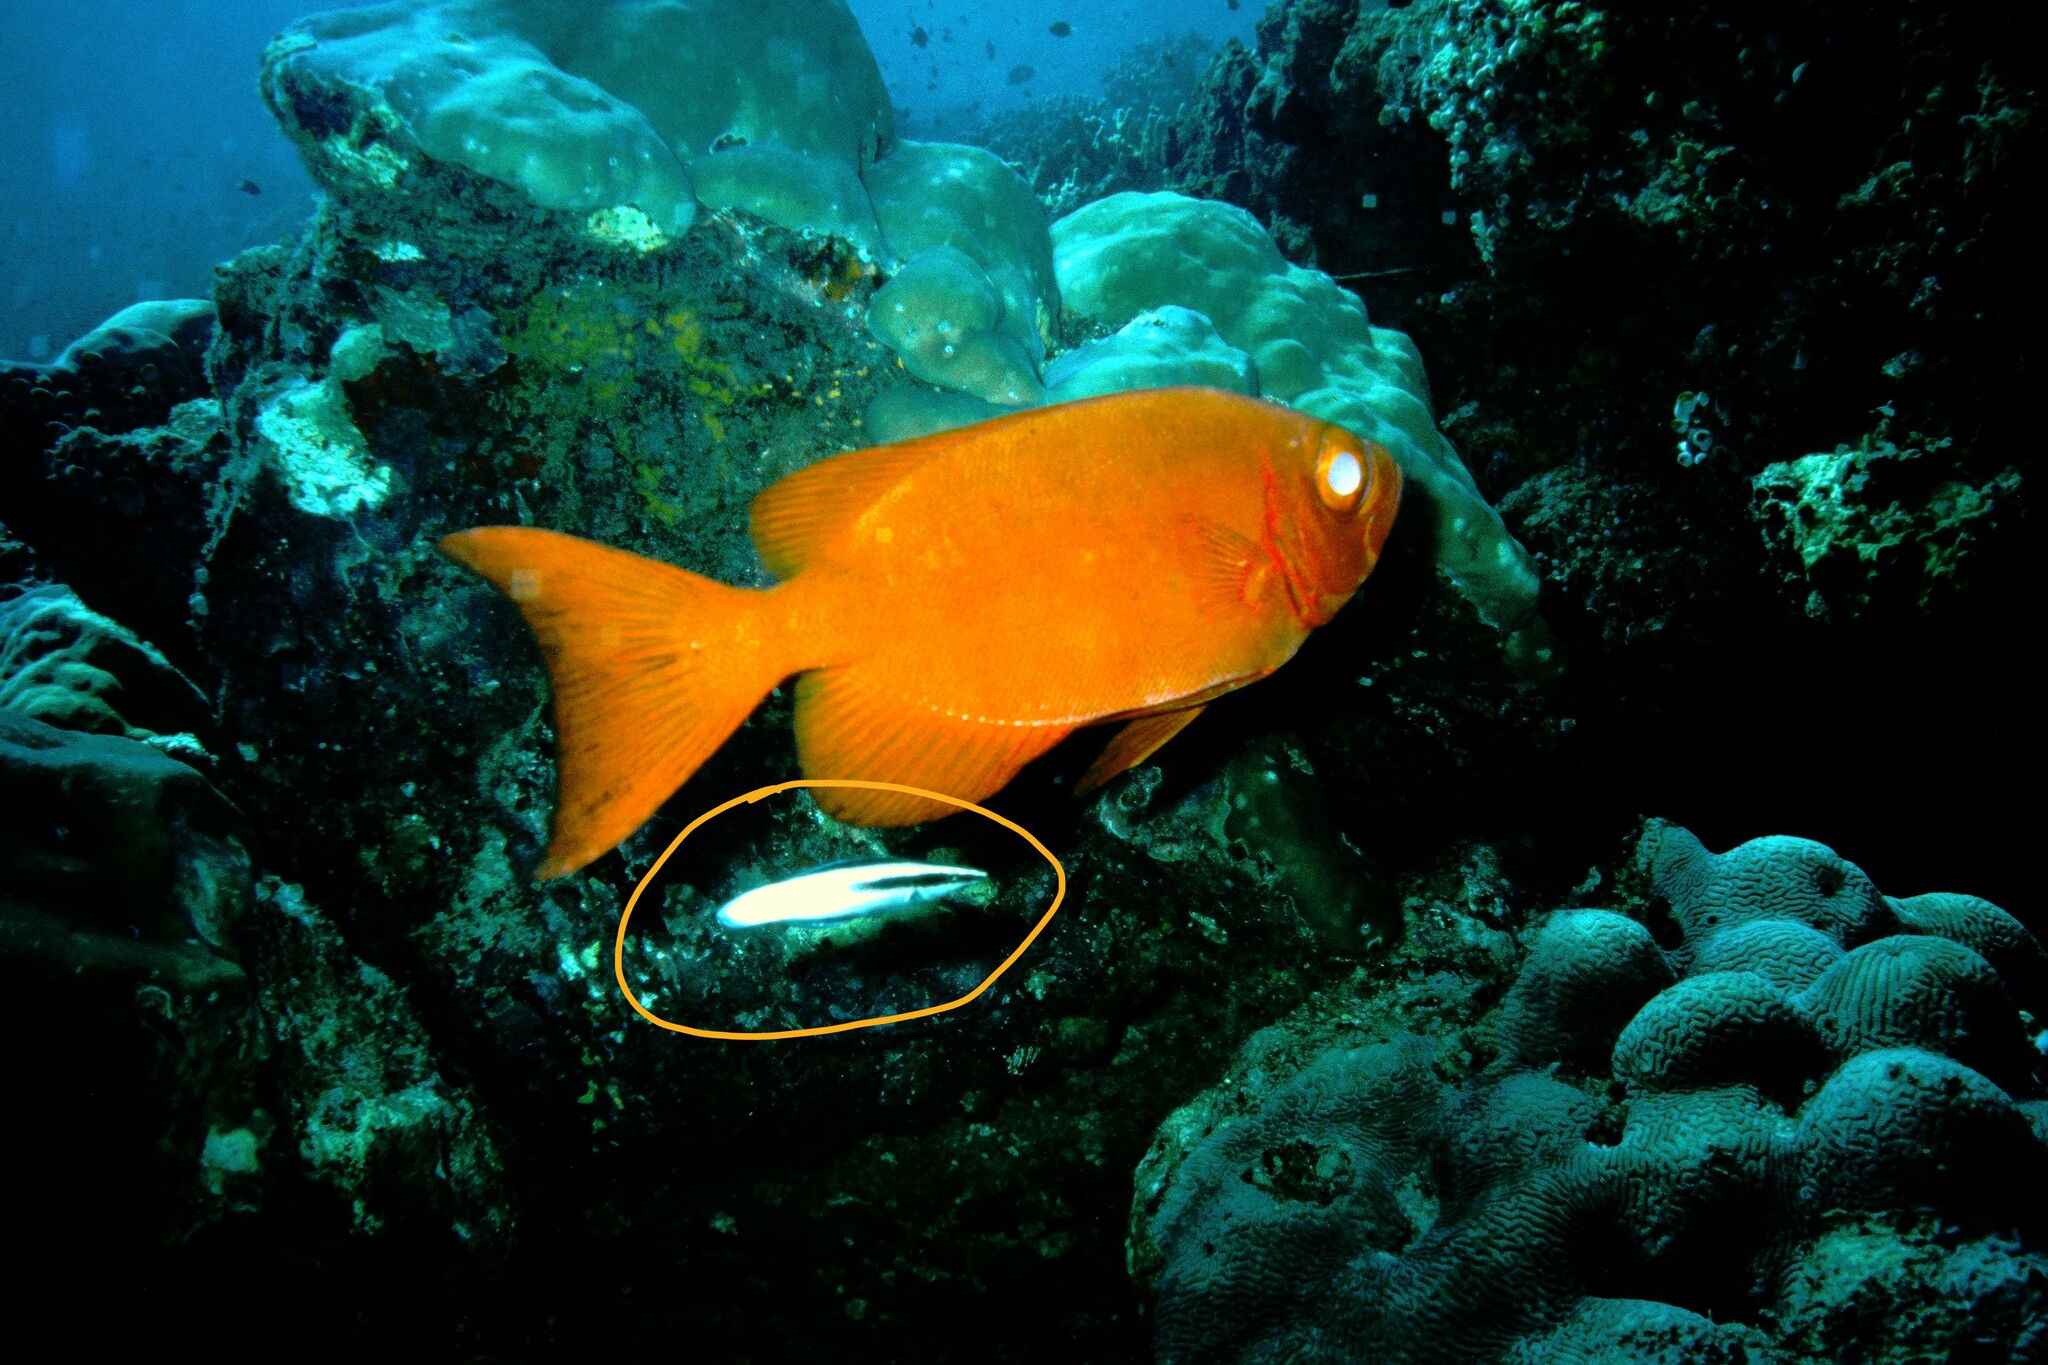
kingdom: Animalia
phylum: Chordata
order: Perciformes
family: Labridae
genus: Labroides
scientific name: Labroides bicolor
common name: Bicolor cleaner wrasse
